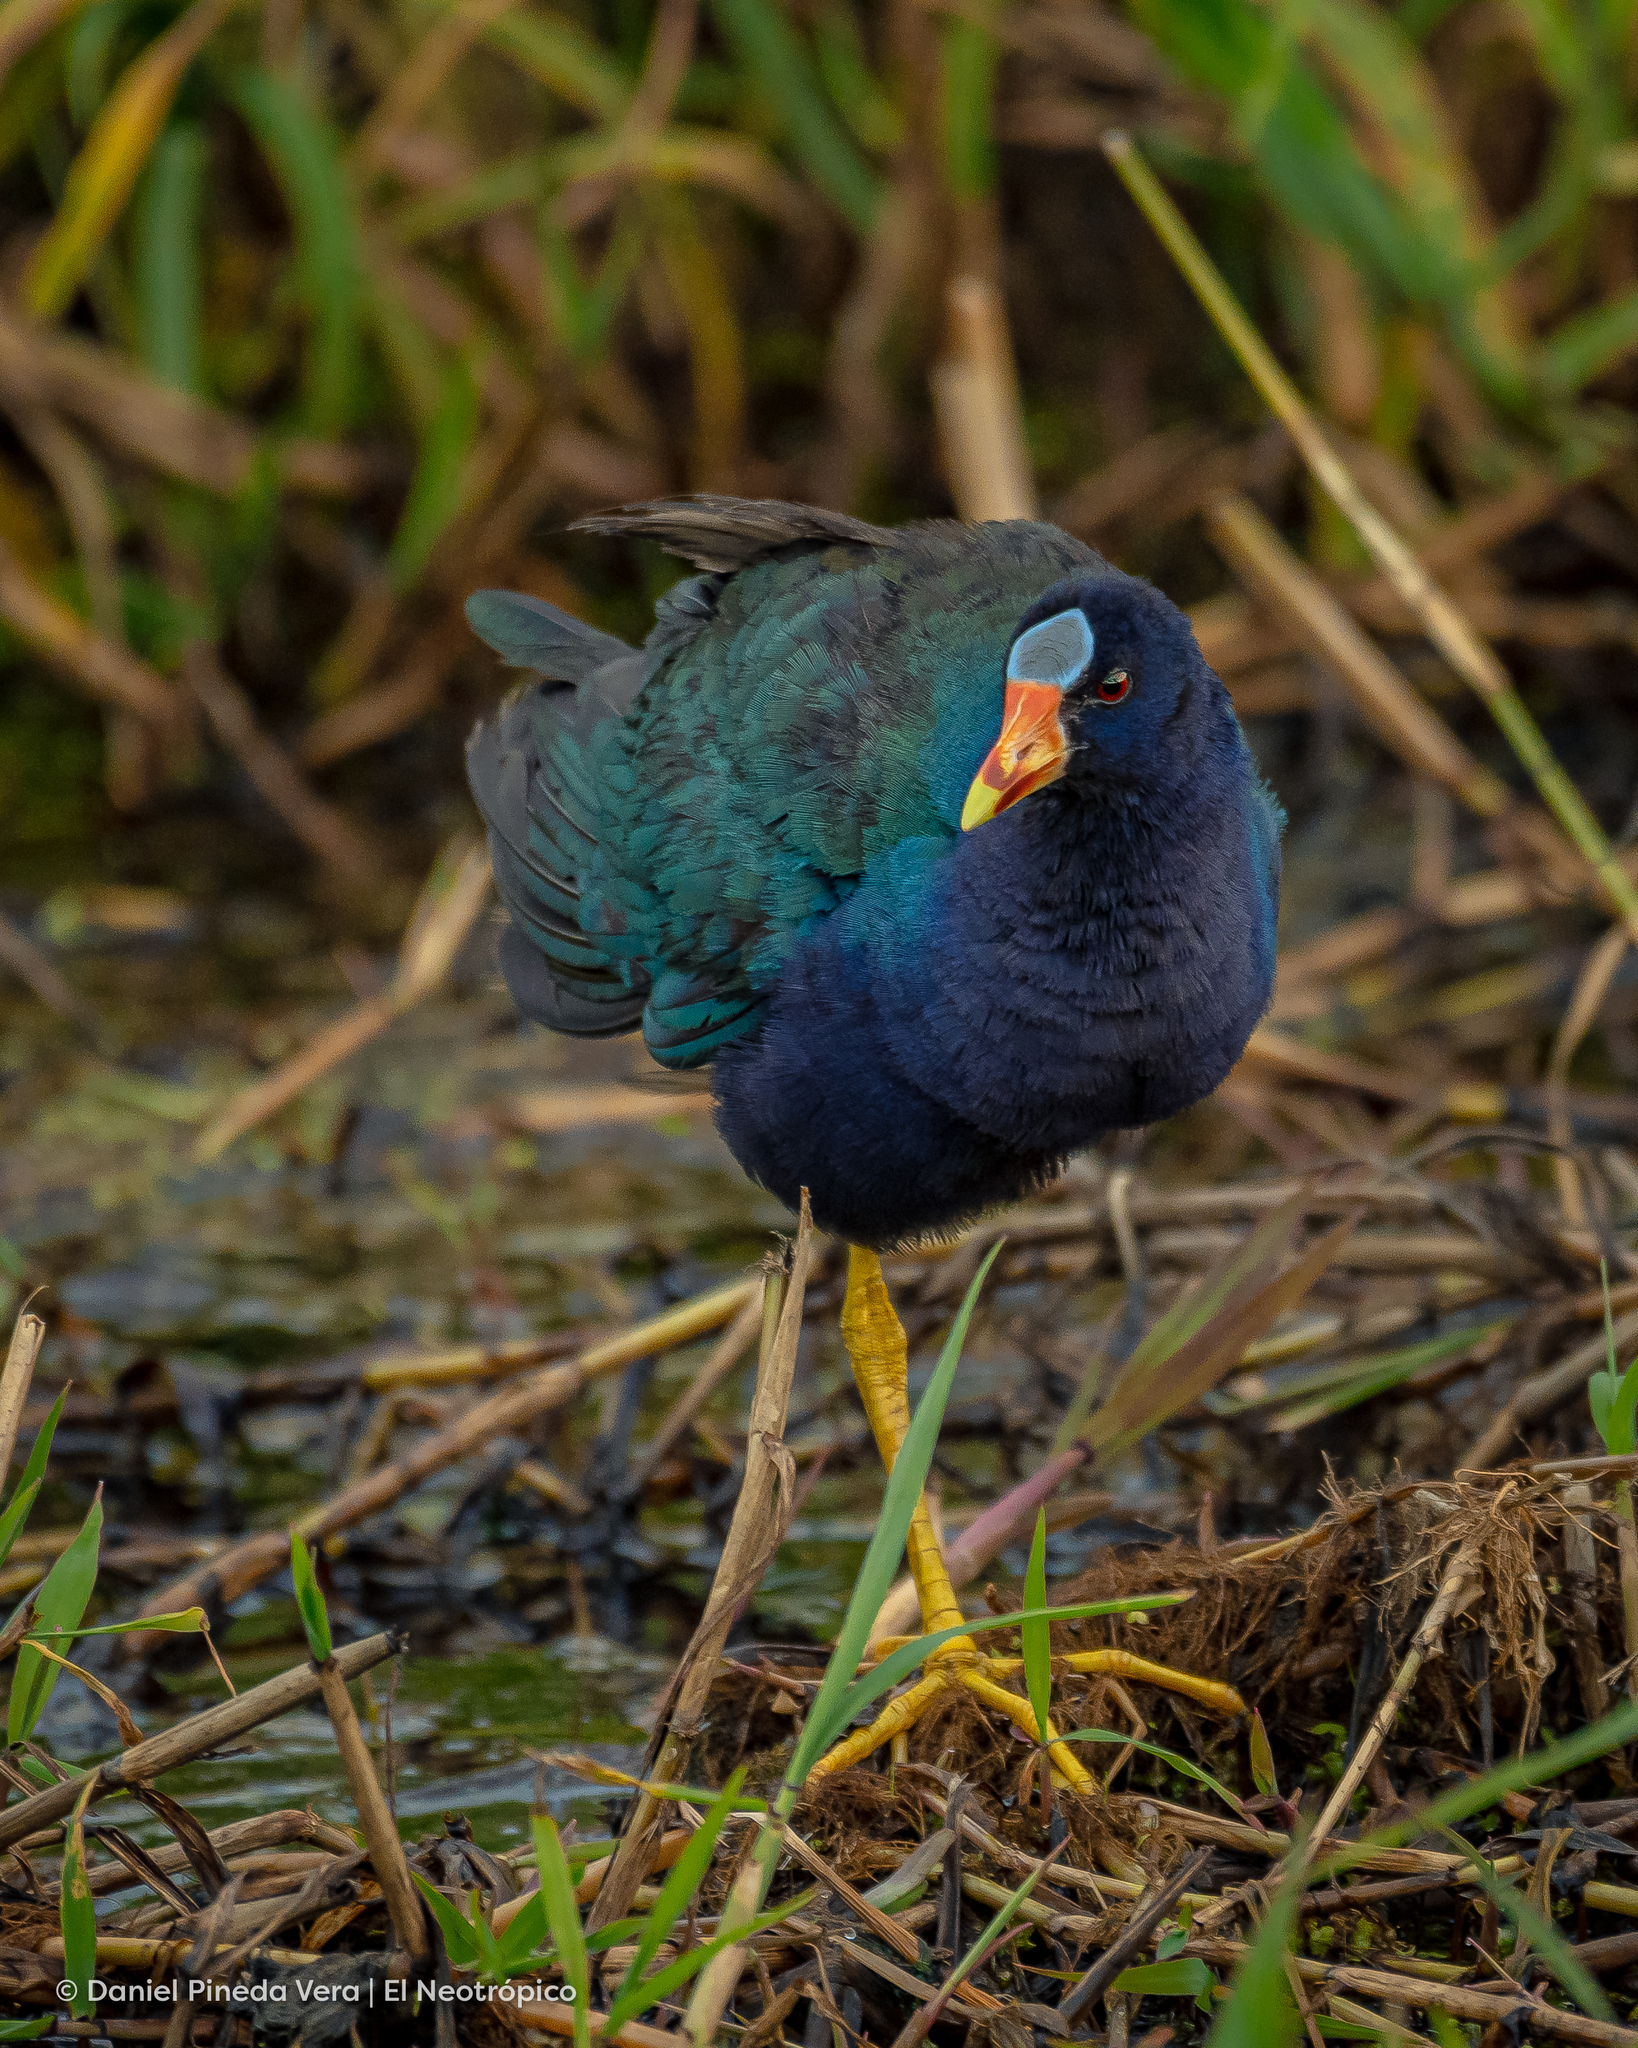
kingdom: Animalia
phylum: Chordata
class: Aves
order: Gruiformes
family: Rallidae
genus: Porphyrio
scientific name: Porphyrio martinica
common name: Purple gallinule
